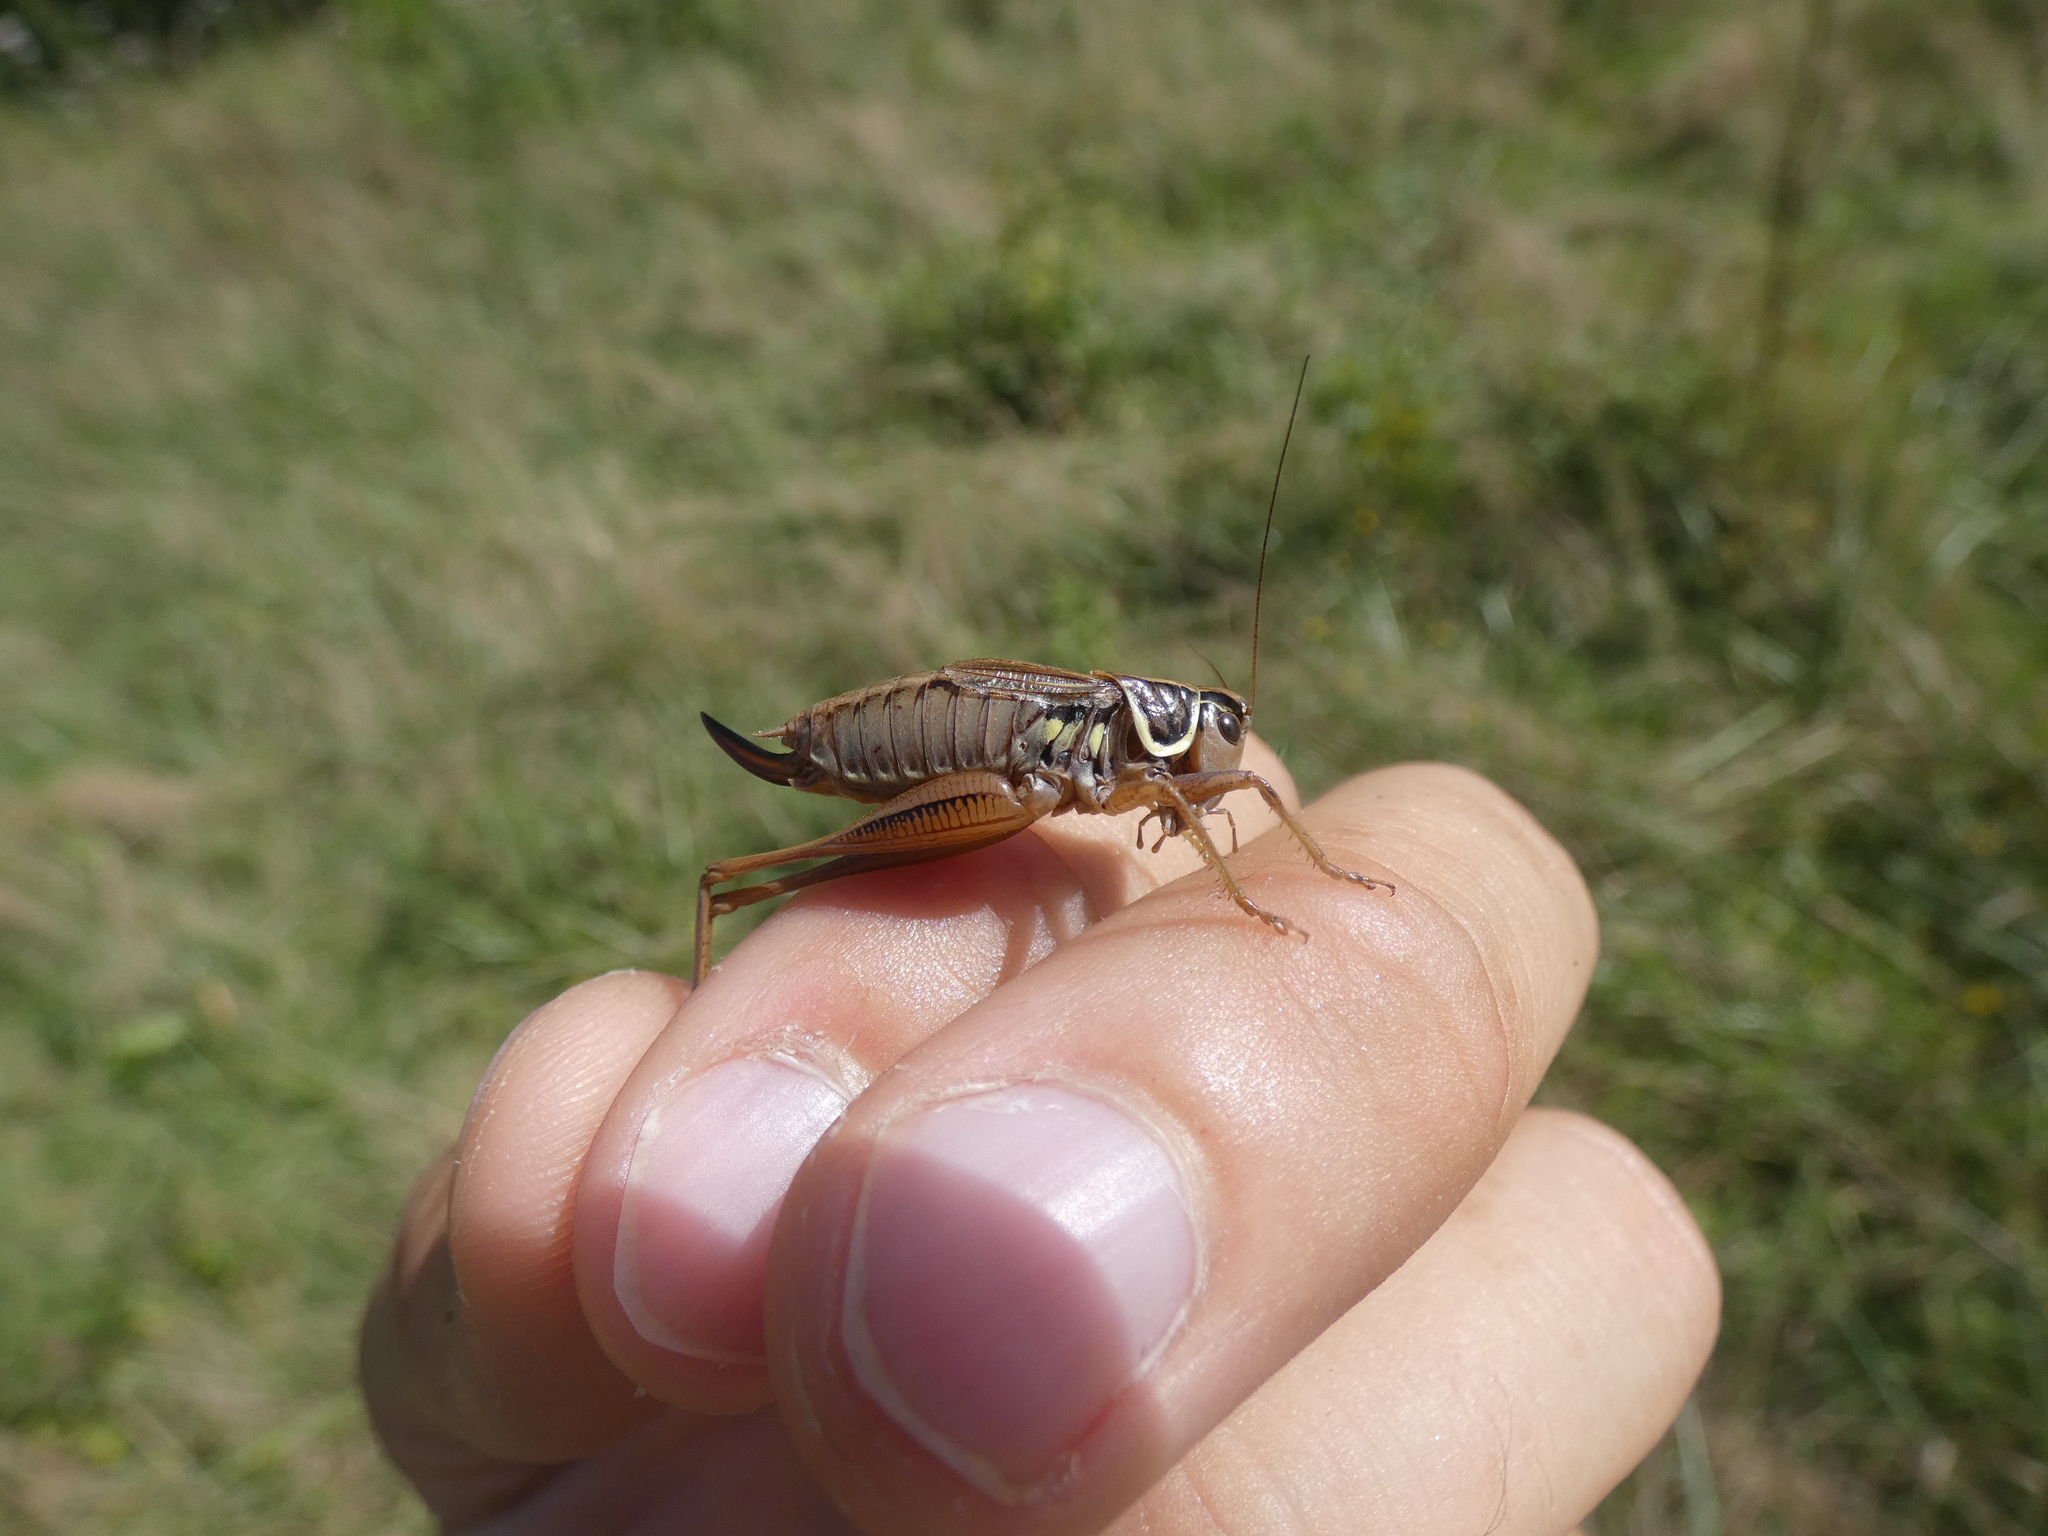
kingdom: Animalia
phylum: Arthropoda
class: Insecta
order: Orthoptera
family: Tettigoniidae
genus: Roeseliana
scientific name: Roeseliana roeselii
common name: Roesel's bush cricket
